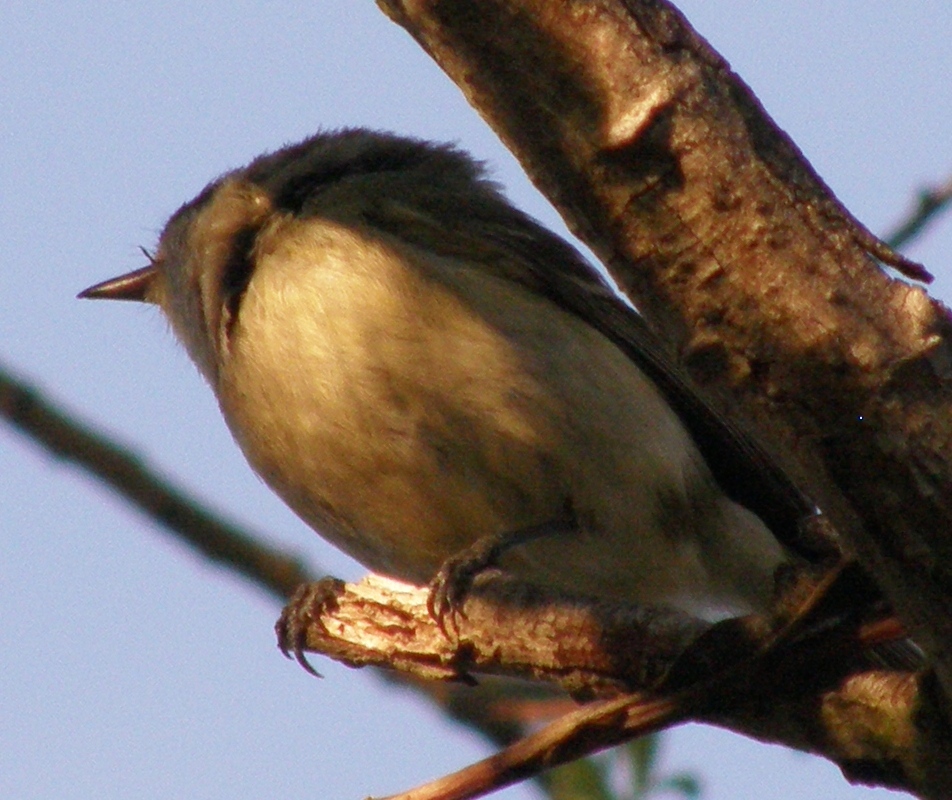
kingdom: Animalia
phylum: Chordata
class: Aves
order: Passeriformes
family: Vireonidae
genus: Vireo
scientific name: Vireo huttoni
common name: Hutton's vireo
